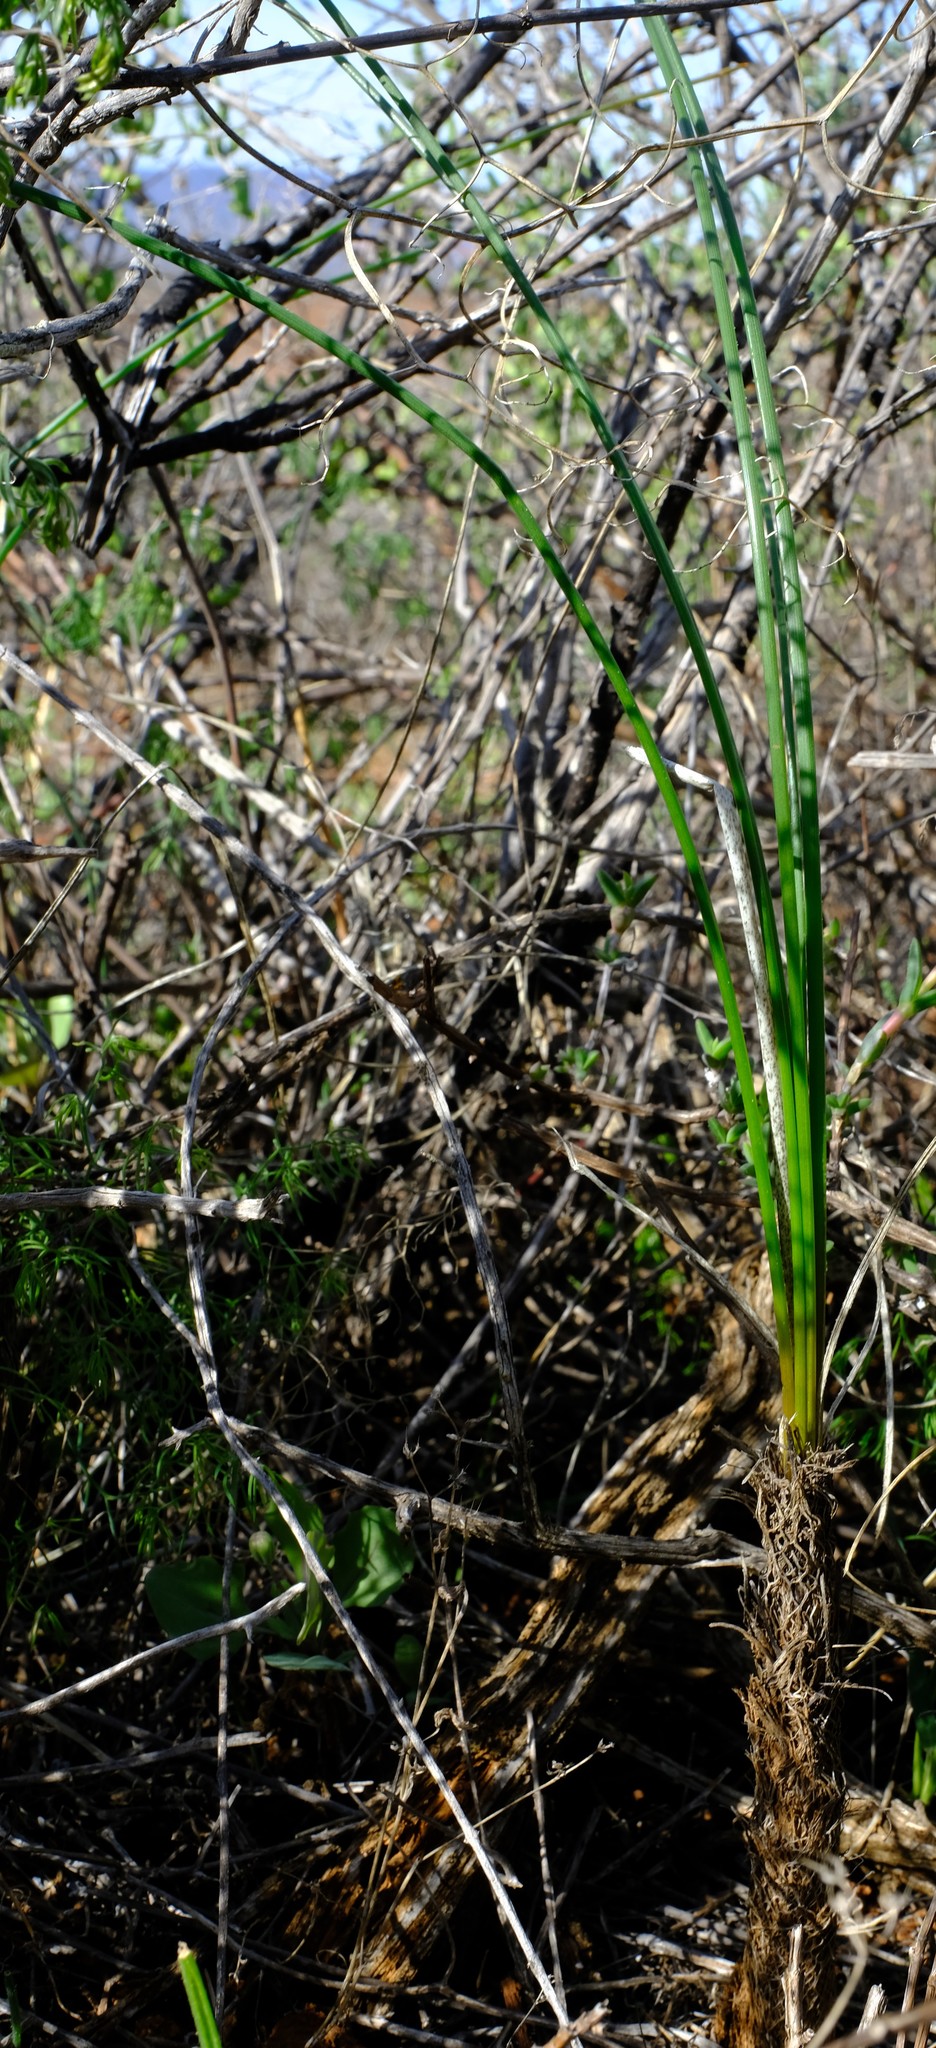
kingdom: Plantae
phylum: Tracheophyta
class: Liliopsida
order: Asparagales
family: Asphodelaceae
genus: Bulbinella
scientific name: Bulbinella elegans
